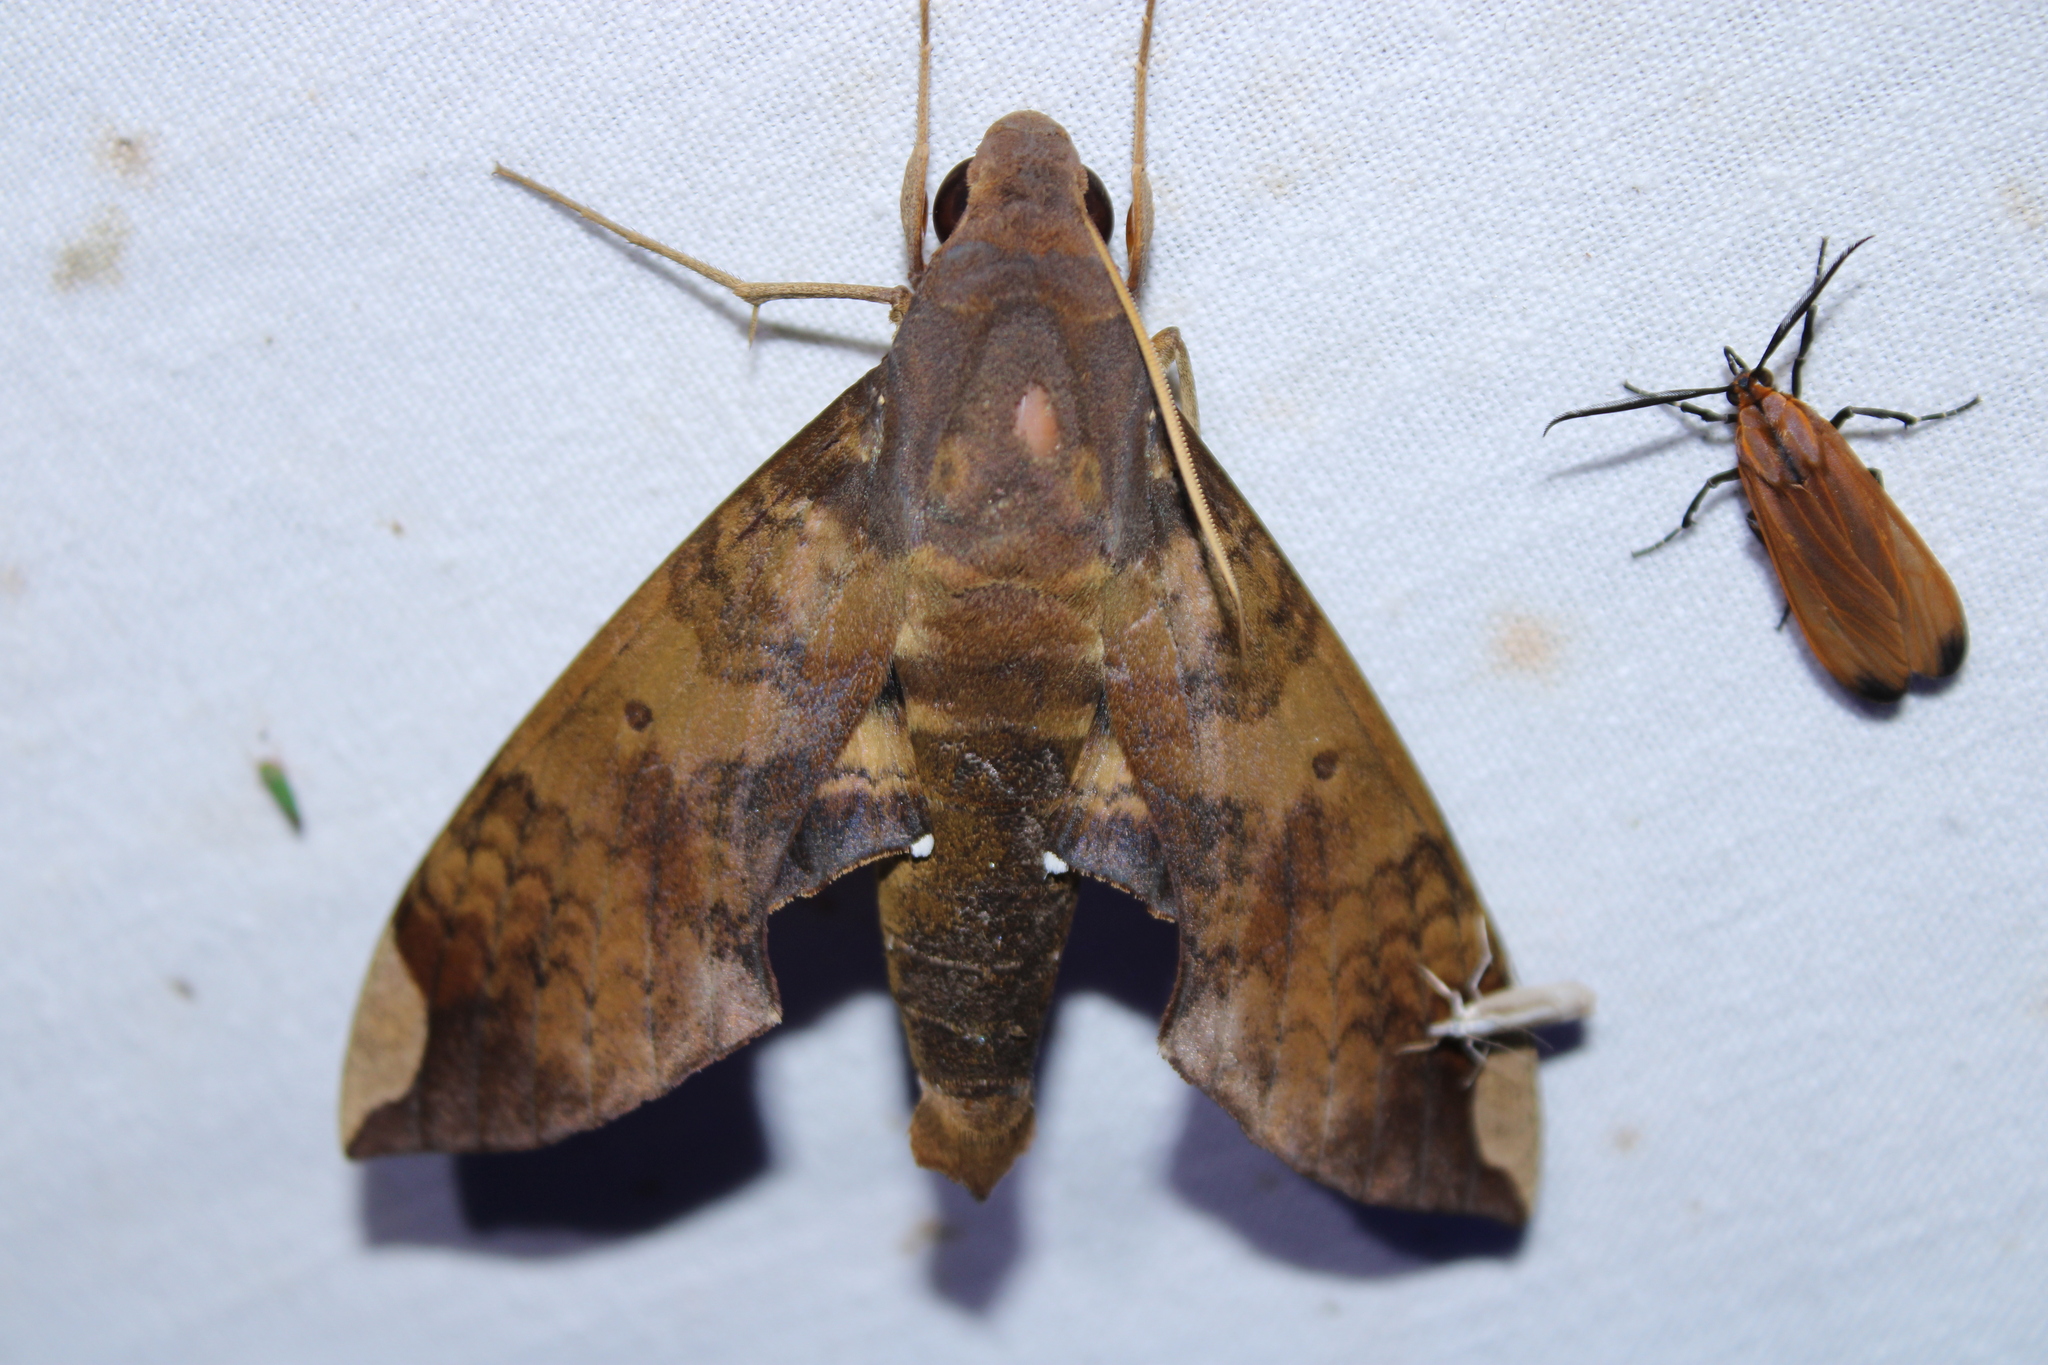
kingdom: Animalia
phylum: Arthropoda
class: Insecta
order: Lepidoptera
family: Sphingidae
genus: Pachylia
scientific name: Pachylia ficus
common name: Fig sphinx
